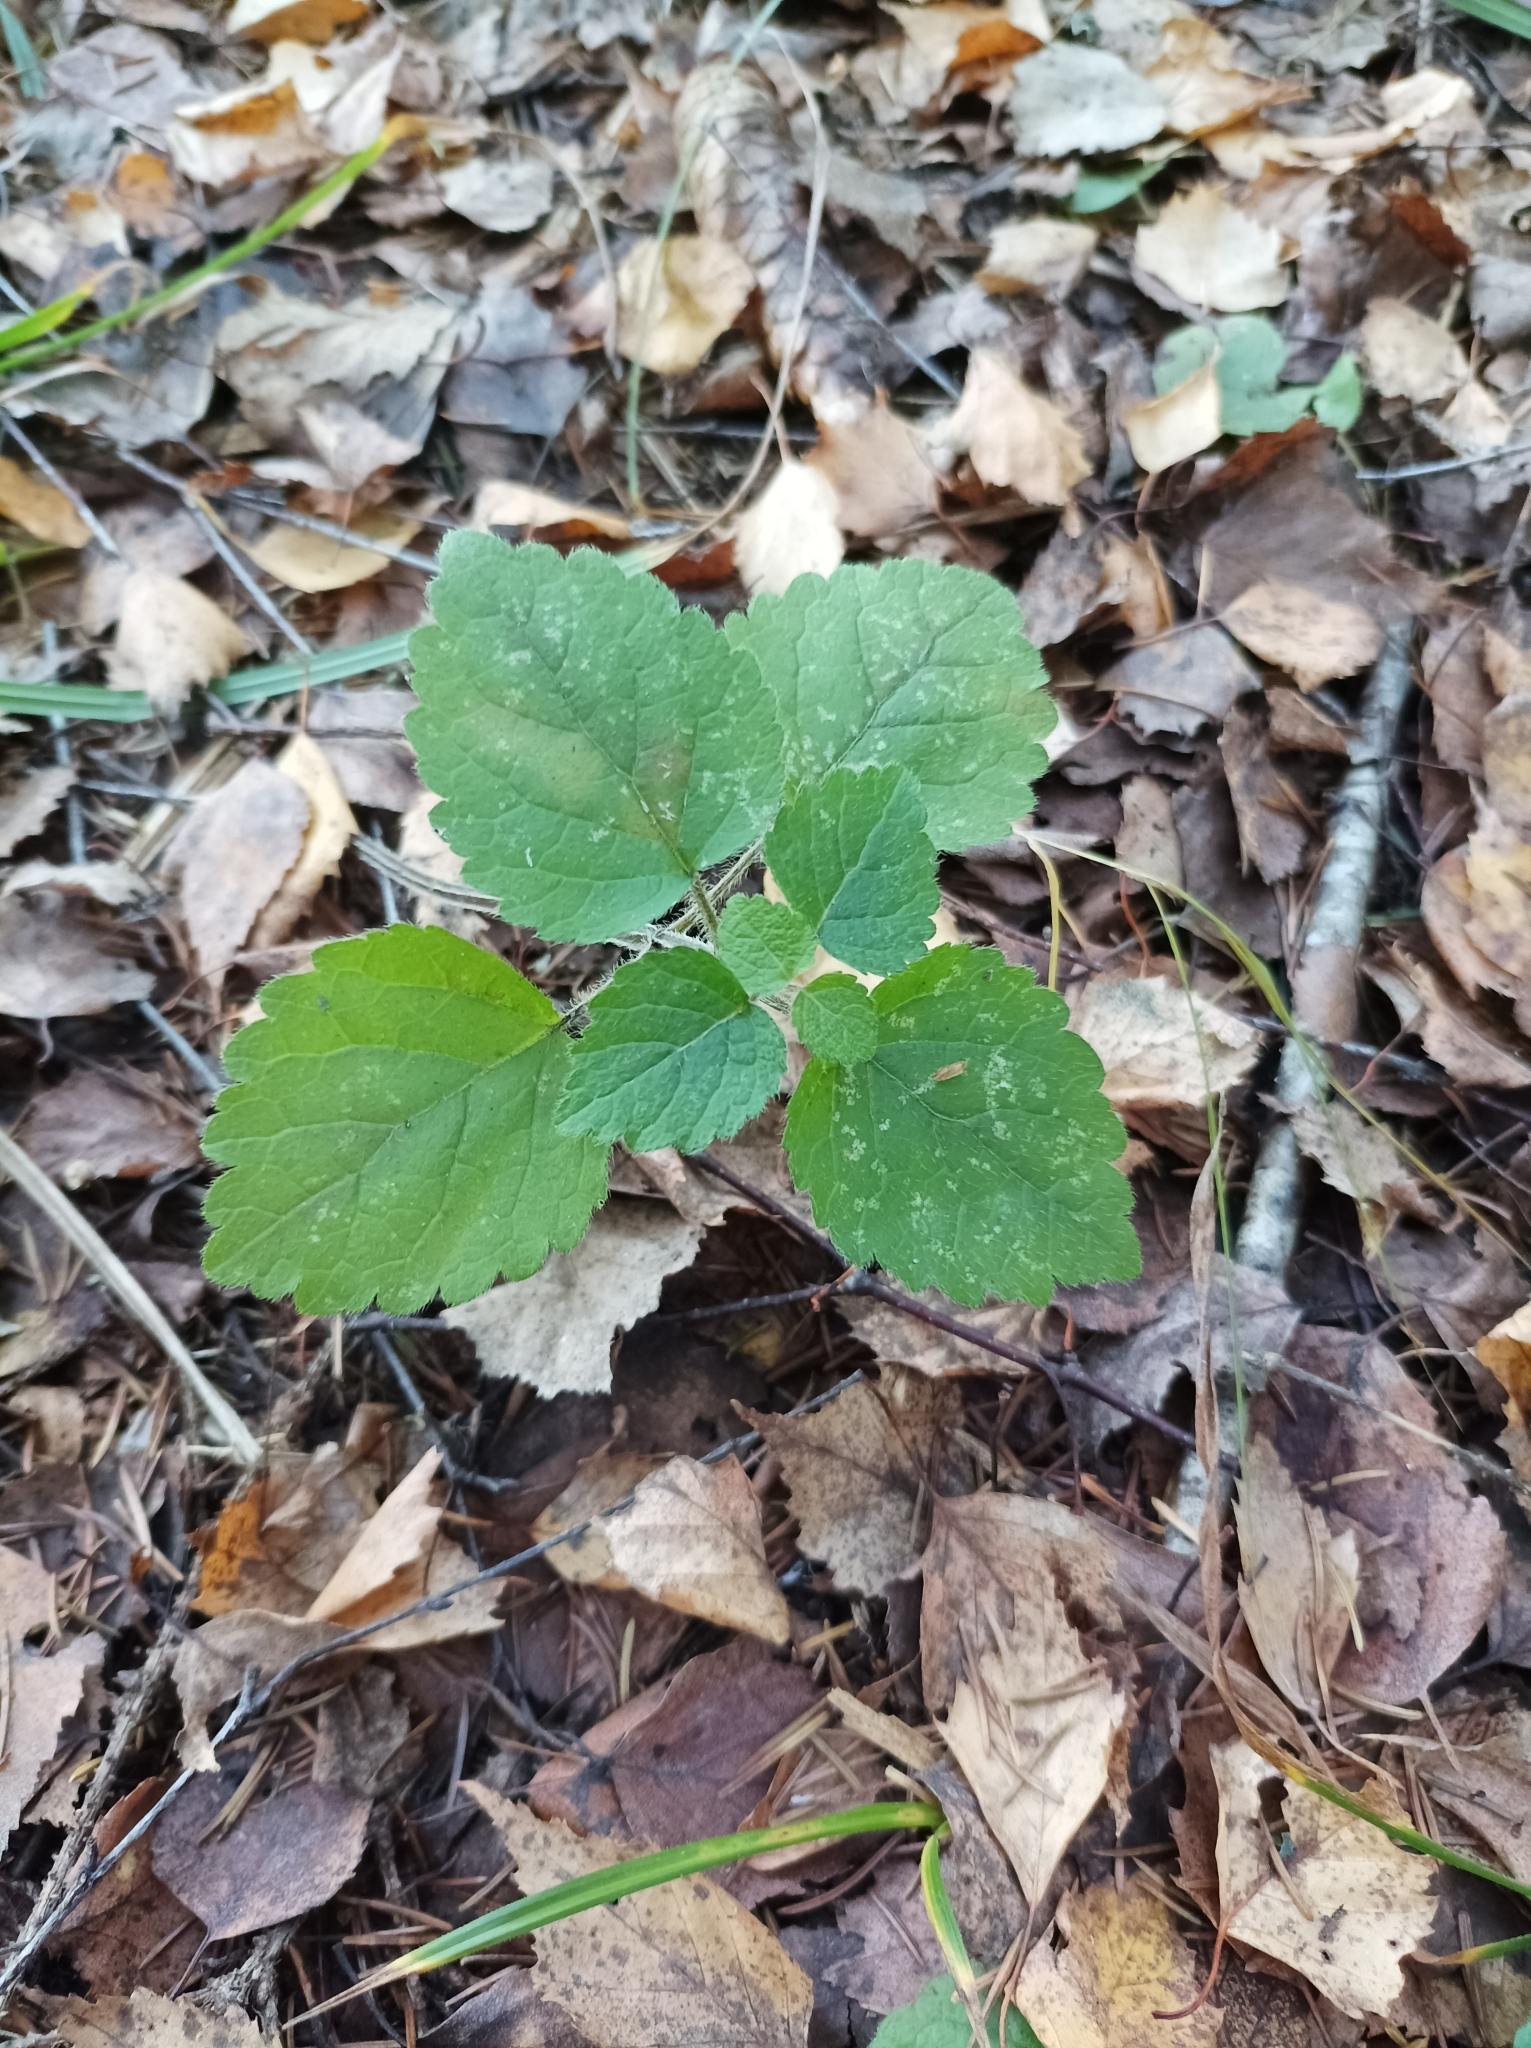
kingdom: Plantae
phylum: Tracheophyta
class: Magnoliopsida
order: Lamiales
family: Lamiaceae
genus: Lamium
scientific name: Lamium galeobdolon
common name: Yellow archangel
